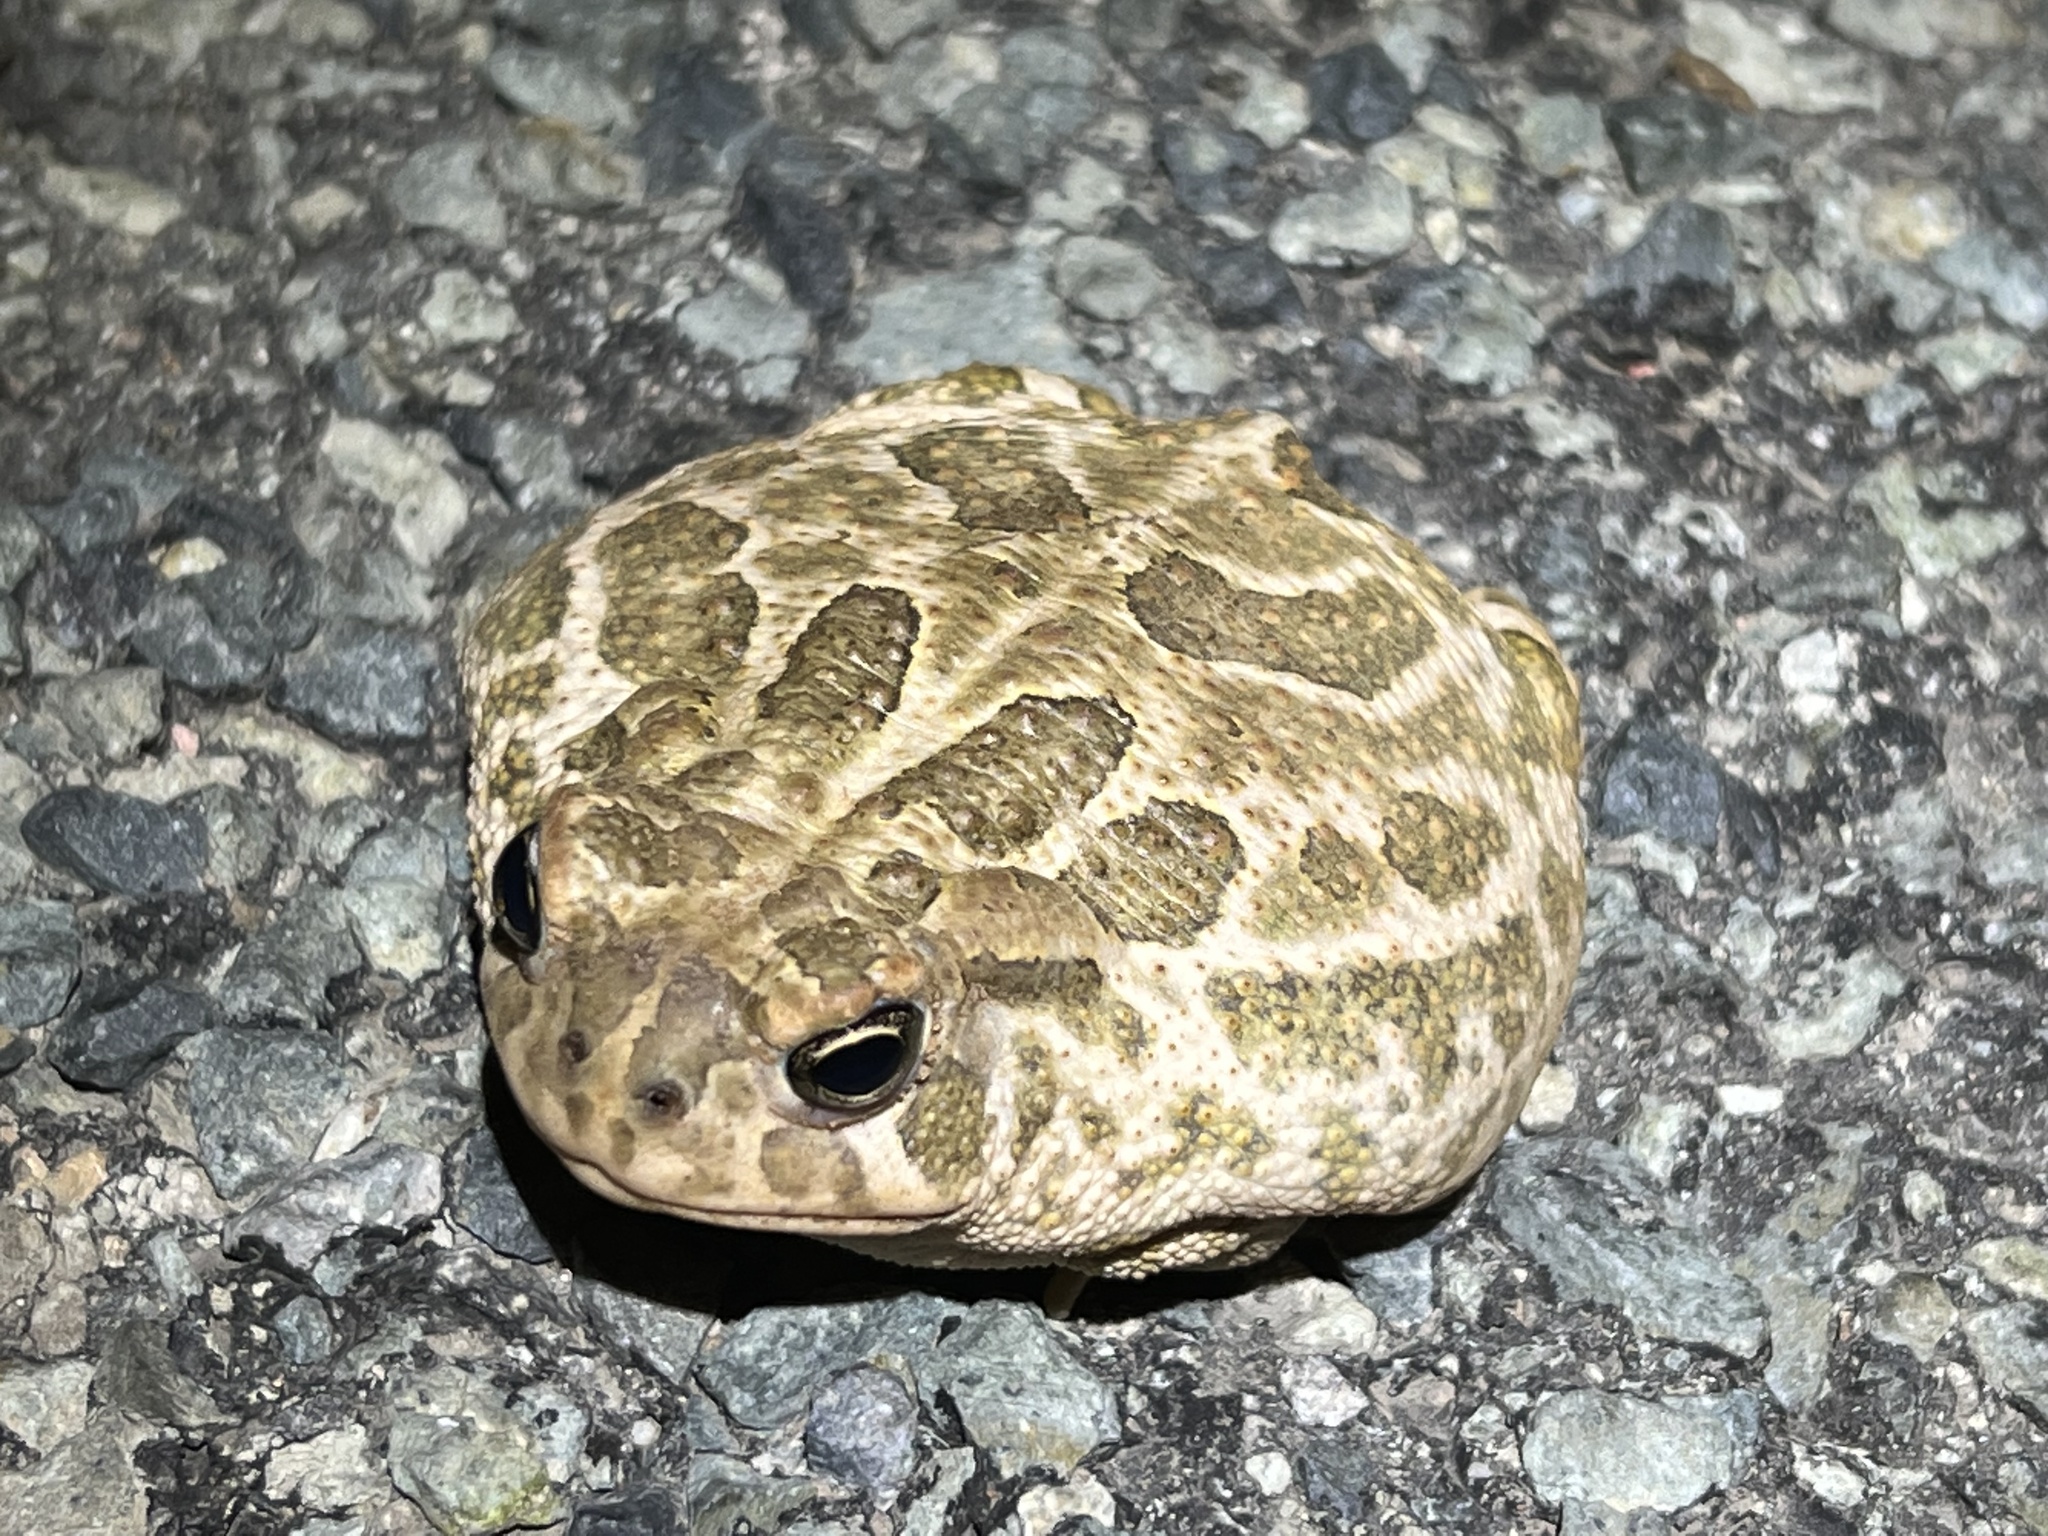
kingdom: Animalia
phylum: Chordata
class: Amphibia
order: Anura
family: Bufonidae
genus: Anaxyrus
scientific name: Anaxyrus cognatus
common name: Great plains toad
